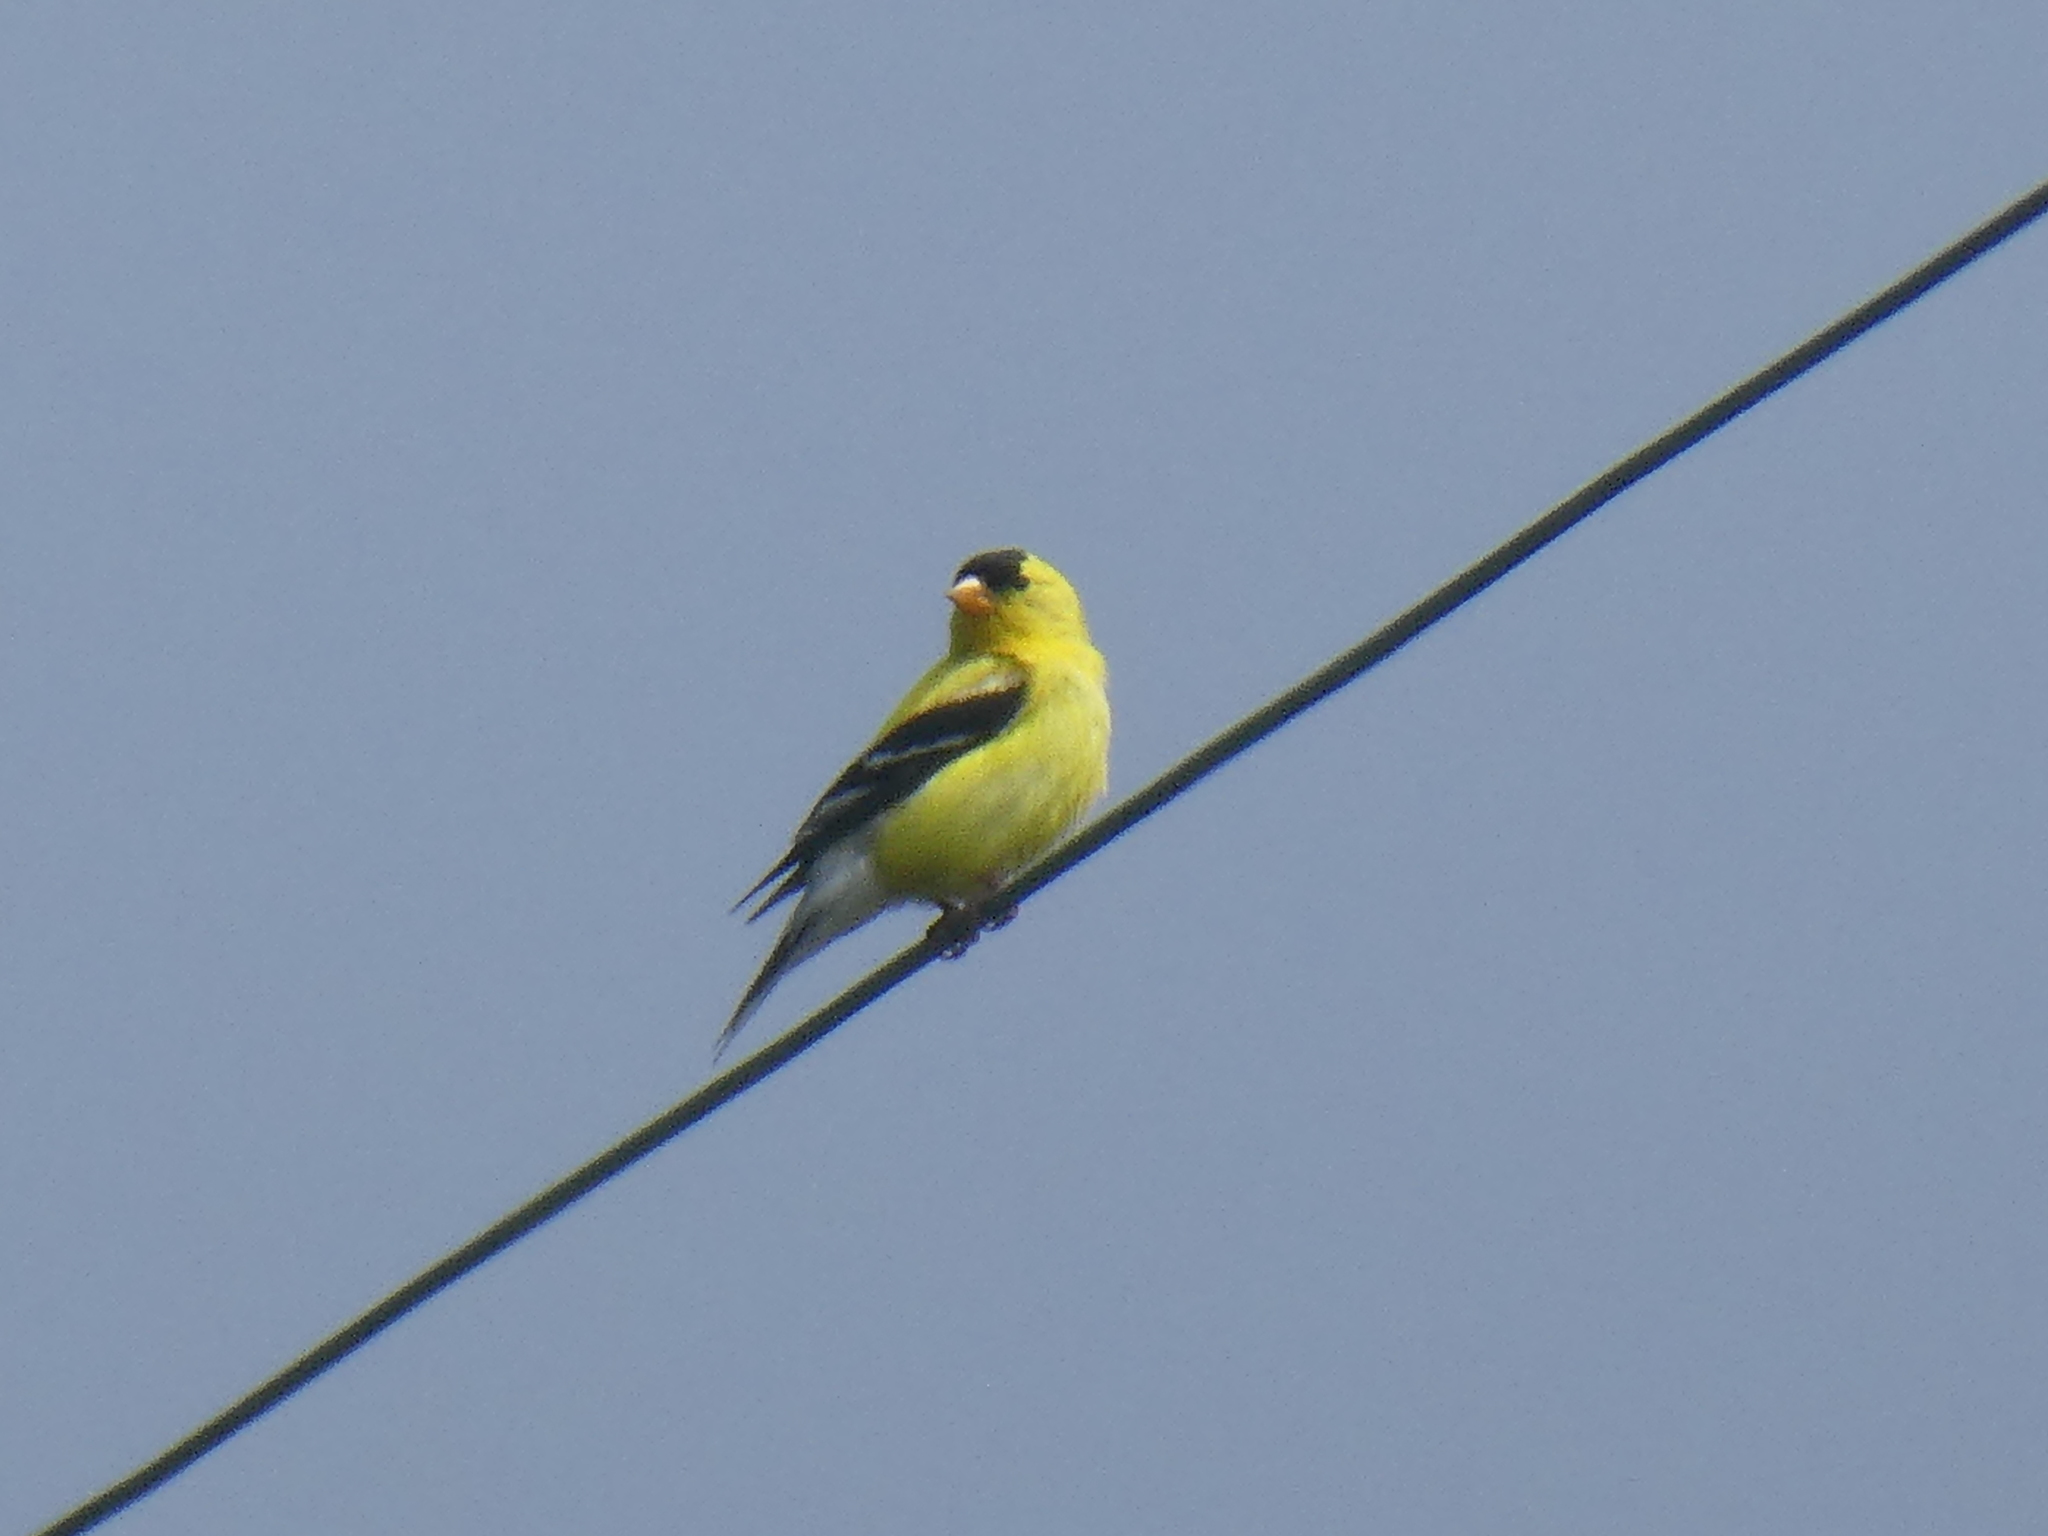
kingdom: Animalia
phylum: Chordata
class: Aves
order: Passeriformes
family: Fringillidae
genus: Spinus
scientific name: Spinus tristis
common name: American goldfinch
